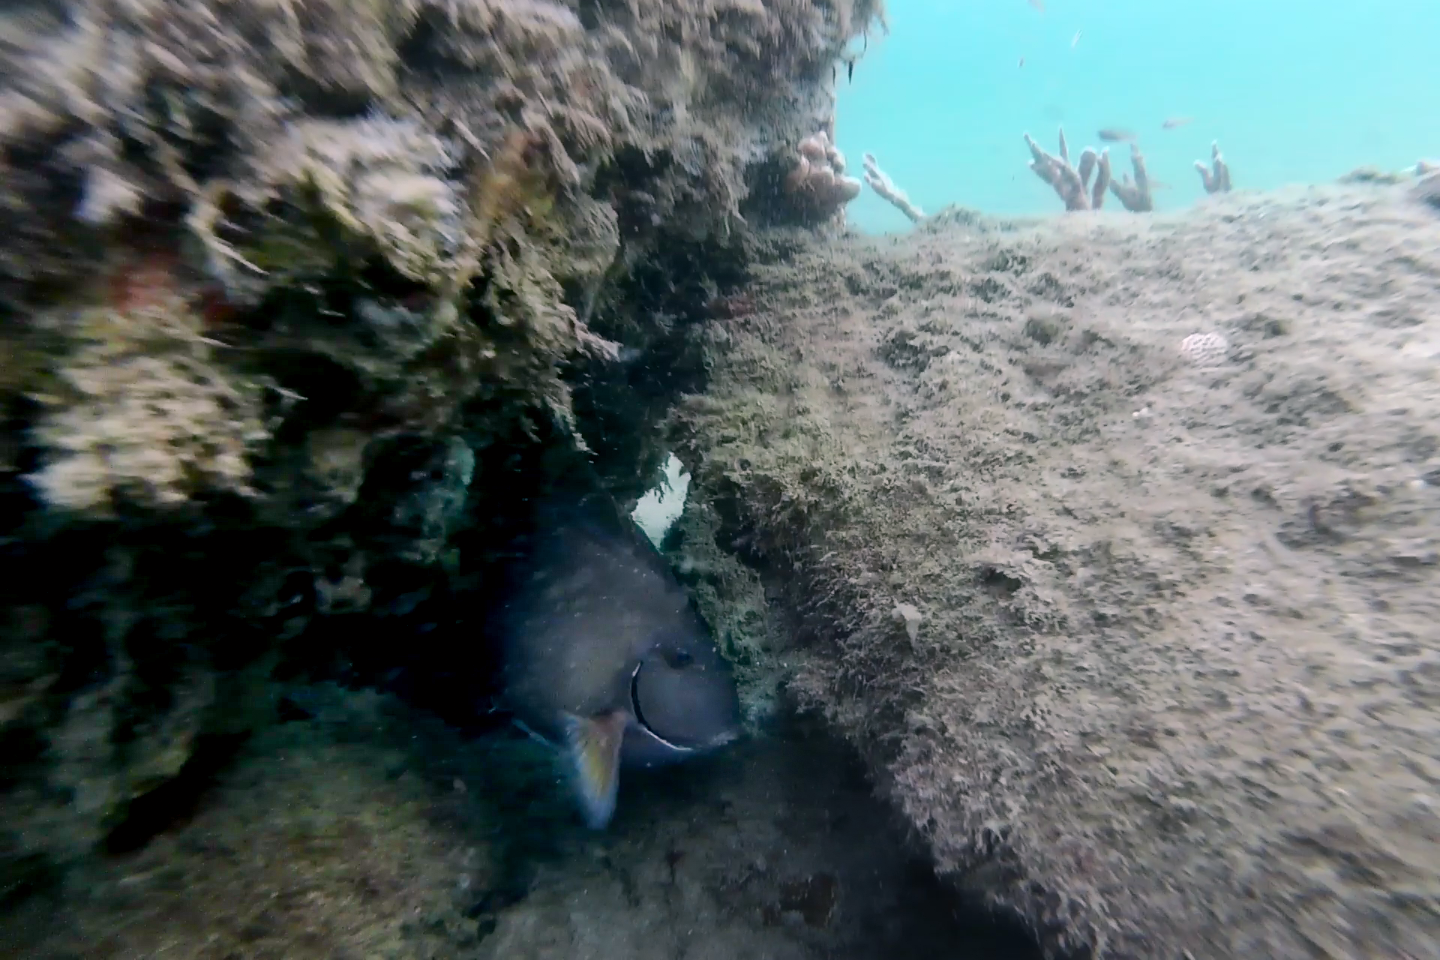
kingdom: Animalia
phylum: Chordata
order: Perciformes
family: Acanthuridae
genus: Acanthurus
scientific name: Acanthurus chirurgus
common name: Doctorfish
